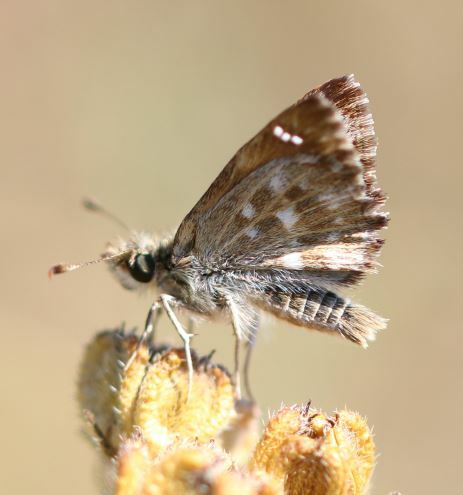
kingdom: Animalia
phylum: Arthropoda
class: Insecta
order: Lepidoptera
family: Hesperiidae
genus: Carcharodus
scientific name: Carcharodus alceae
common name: Mallow skipper
